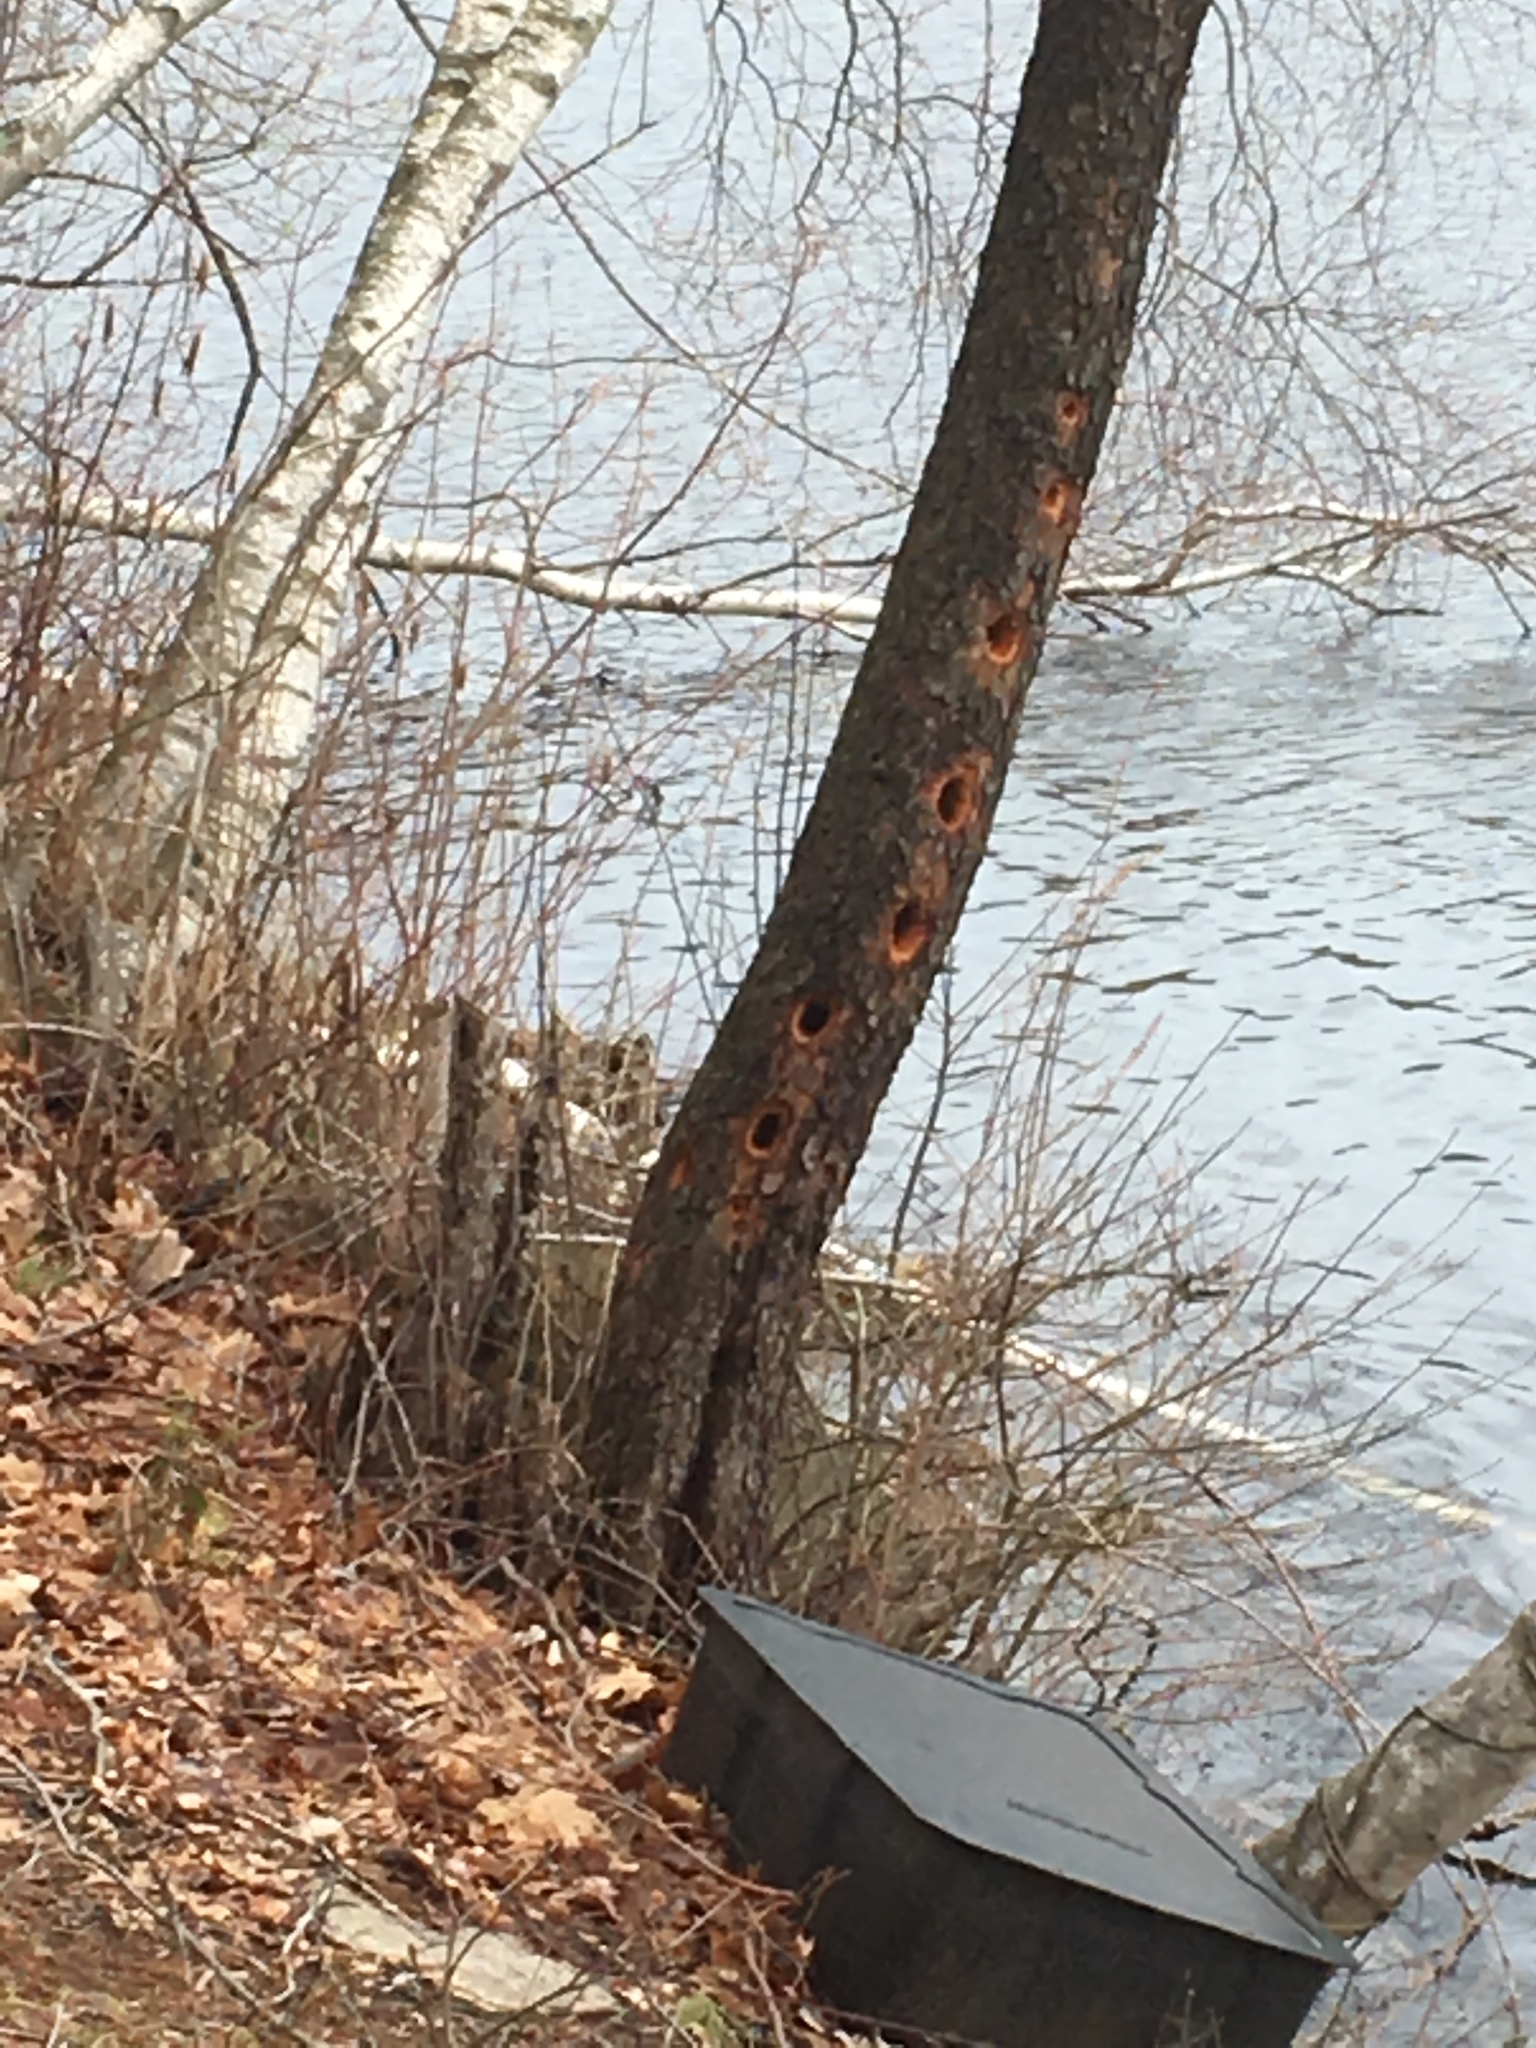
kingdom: Animalia
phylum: Chordata
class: Aves
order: Piciformes
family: Picidae
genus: Dryocopus
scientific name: Dryocopus pileatus
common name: Pileated woodpecker
